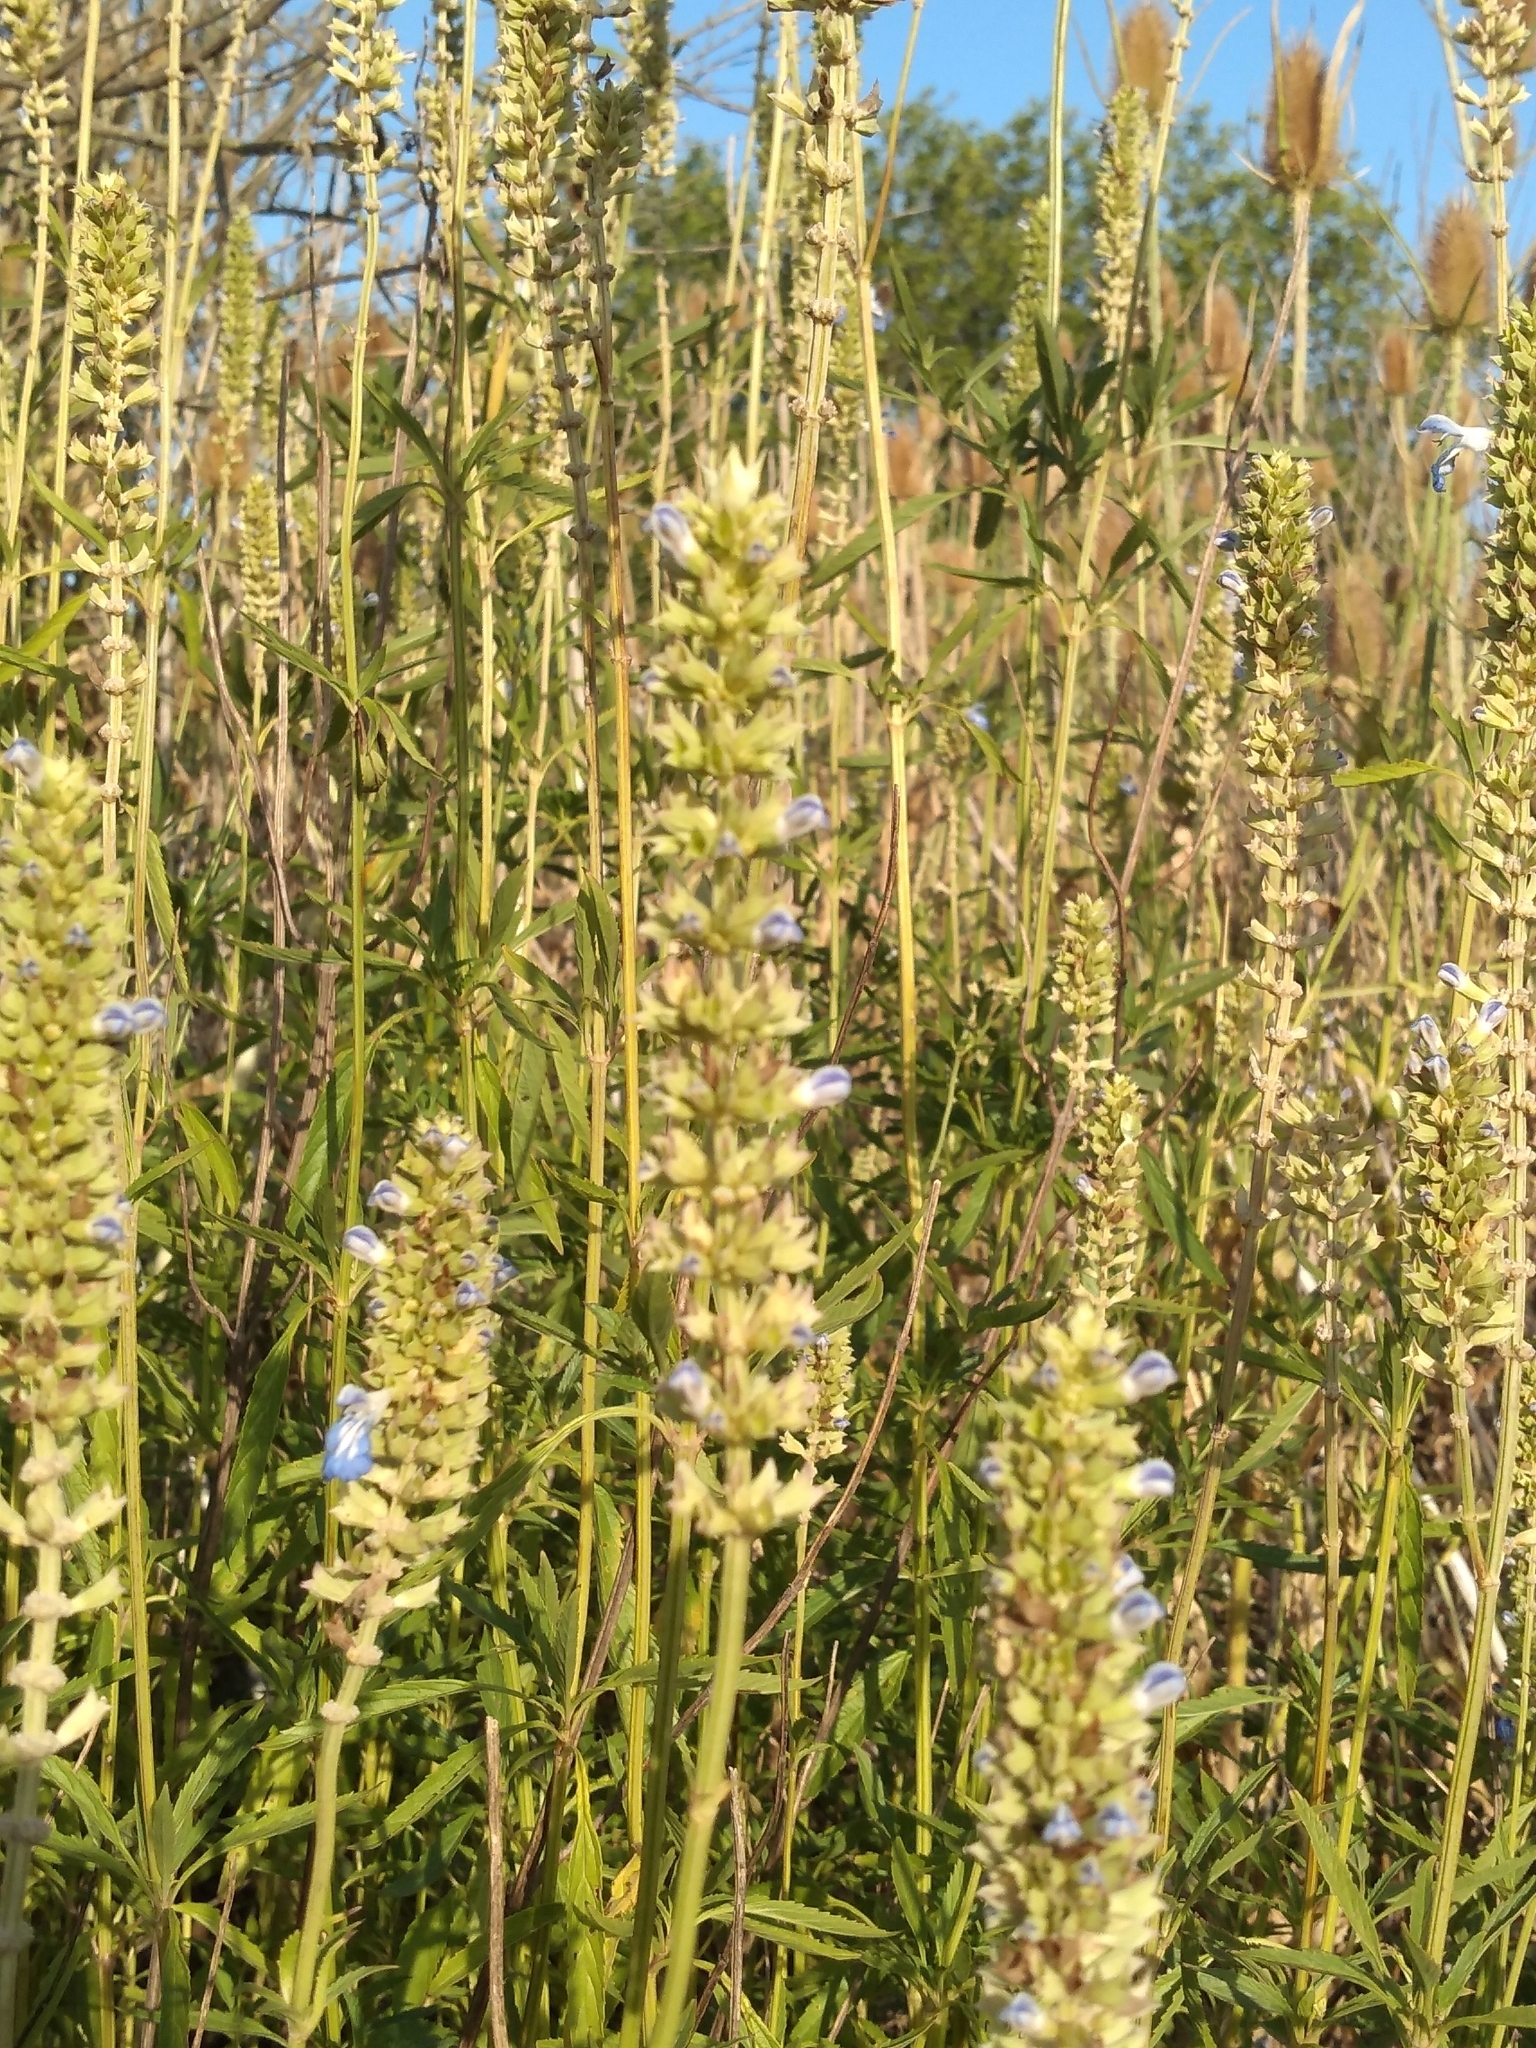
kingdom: Plantae
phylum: Tracheophyta
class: Magnoliopsida
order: Lamiales
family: Lamiaceae
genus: Salvia
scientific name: Salvia uliginosa
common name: Bog sage
